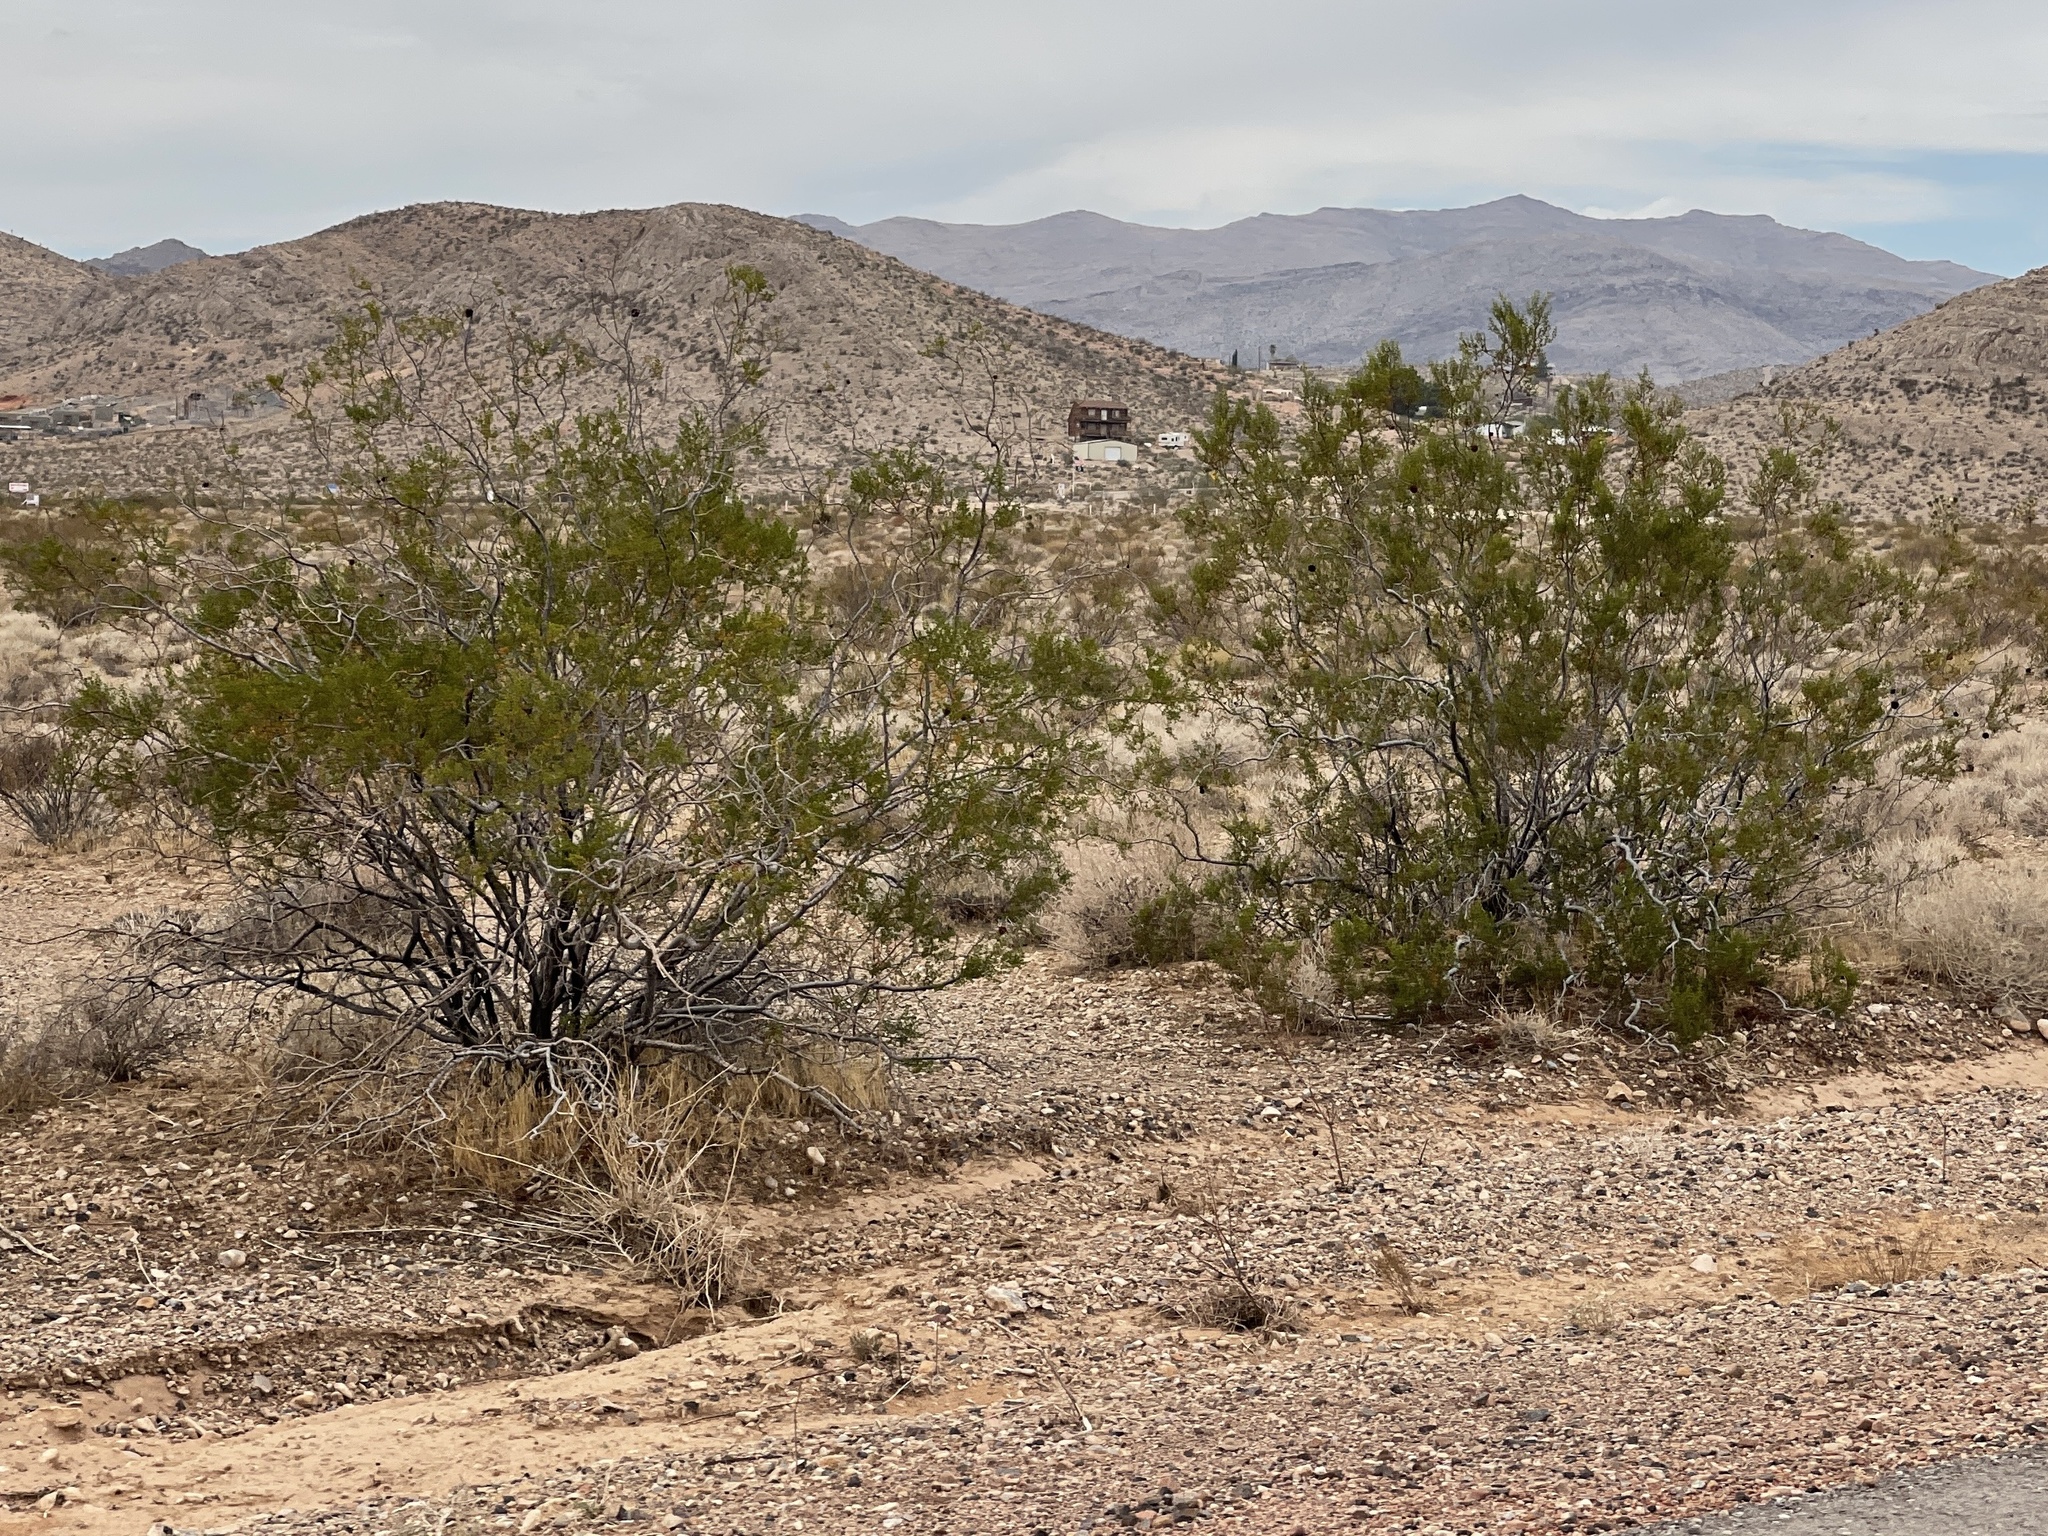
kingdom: Plantae
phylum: Tracheophyta
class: Magnoliopsida
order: Zygophyllales
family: Zygophyllaceae
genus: Larrea
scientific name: Larrea tridentata
